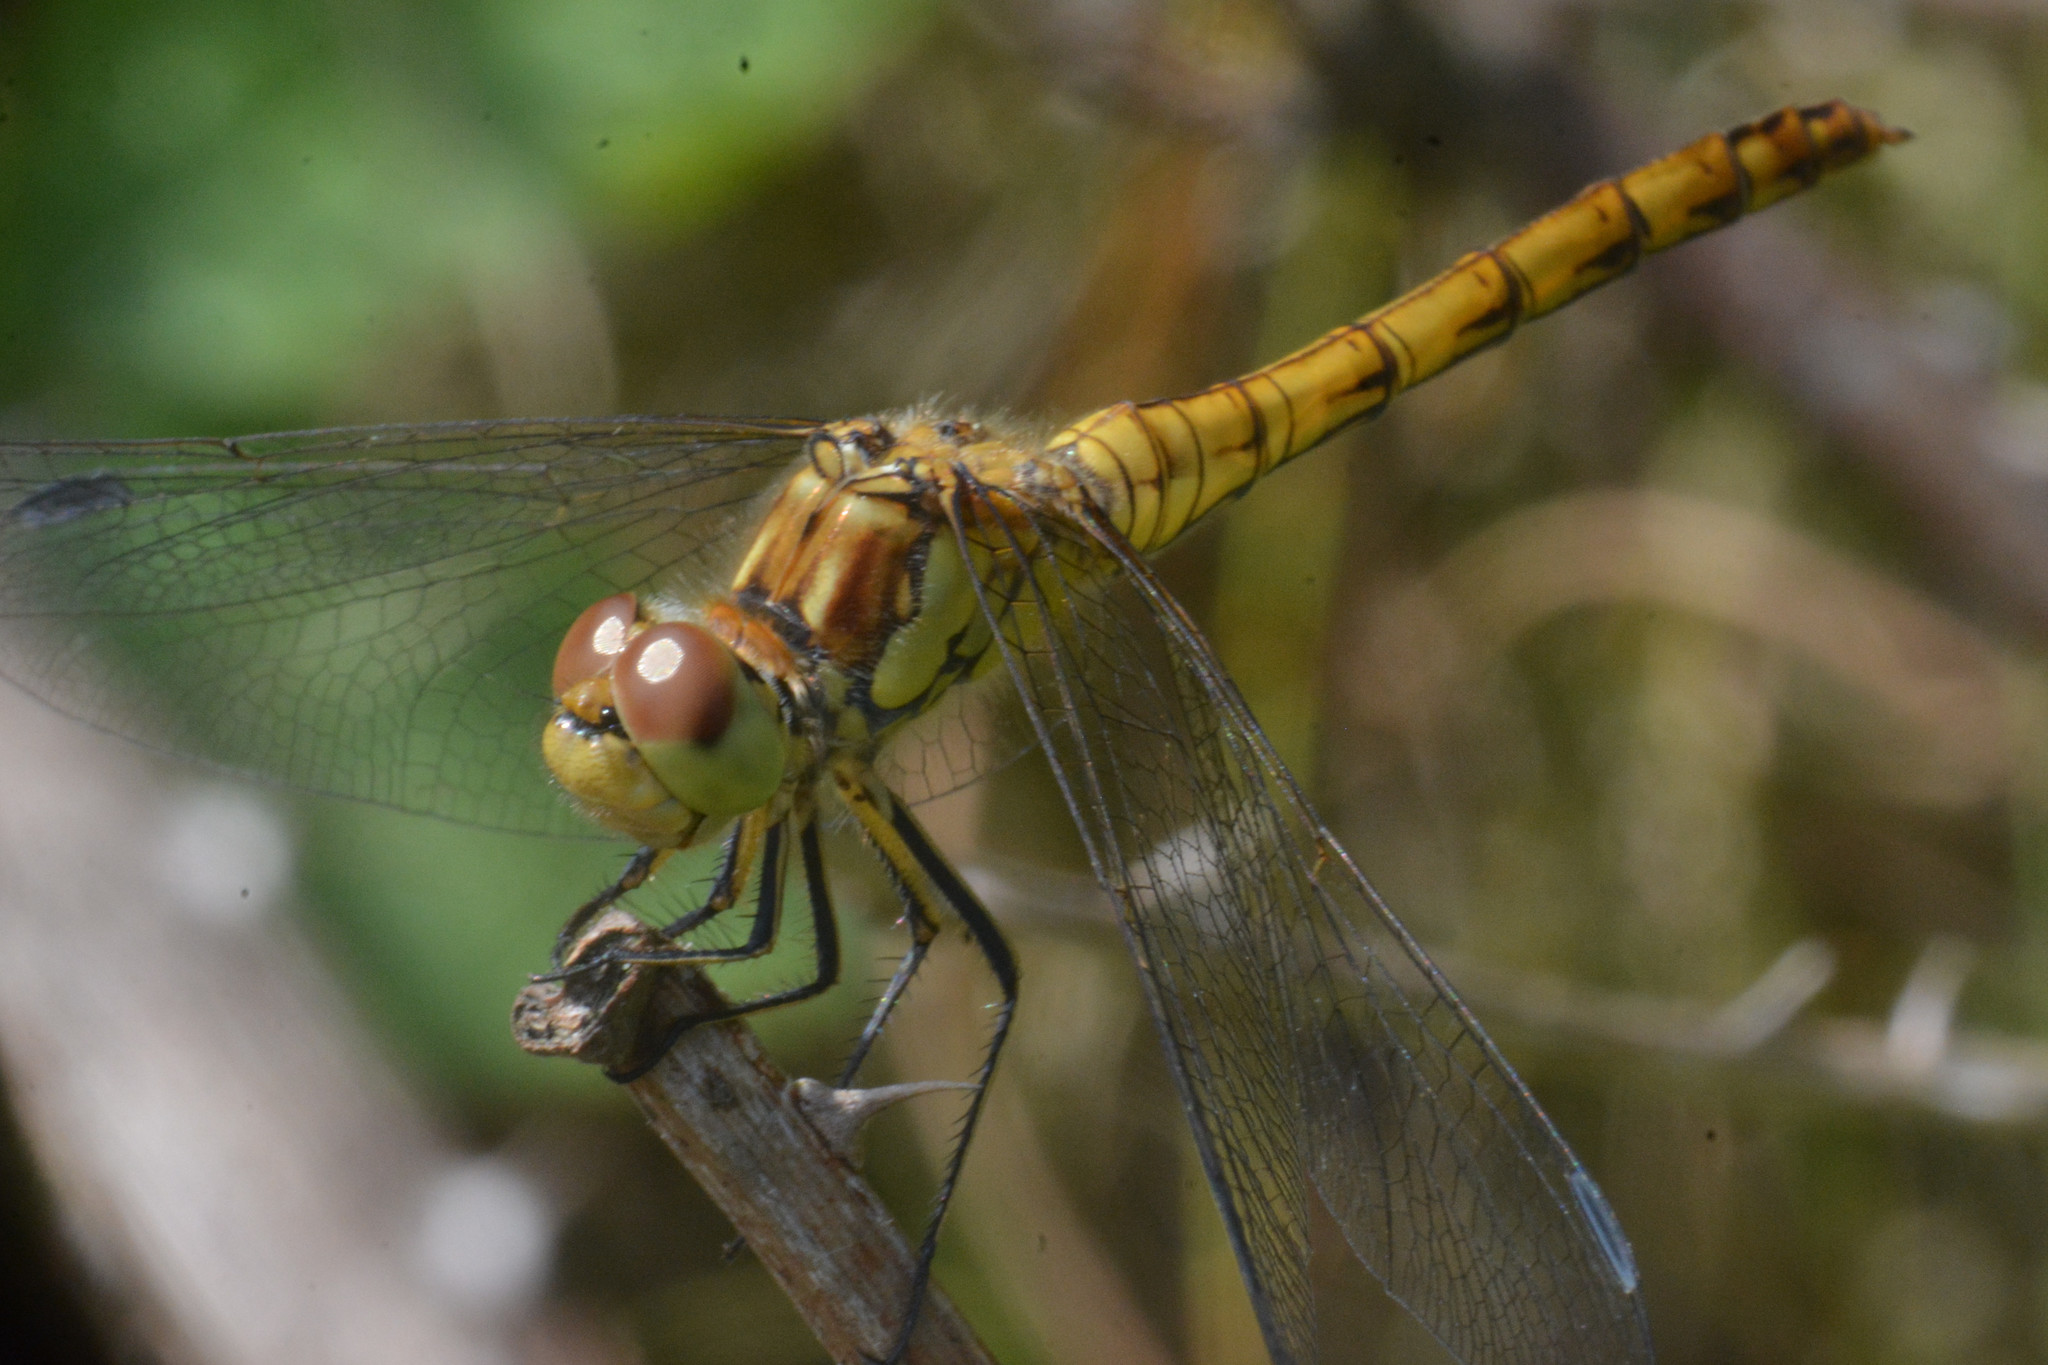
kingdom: Animalia
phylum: Arthropoda
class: Insecta
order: Odonata
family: Libellulidae
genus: Sympetrum
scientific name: Sympetrum striolatum
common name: Common darter
